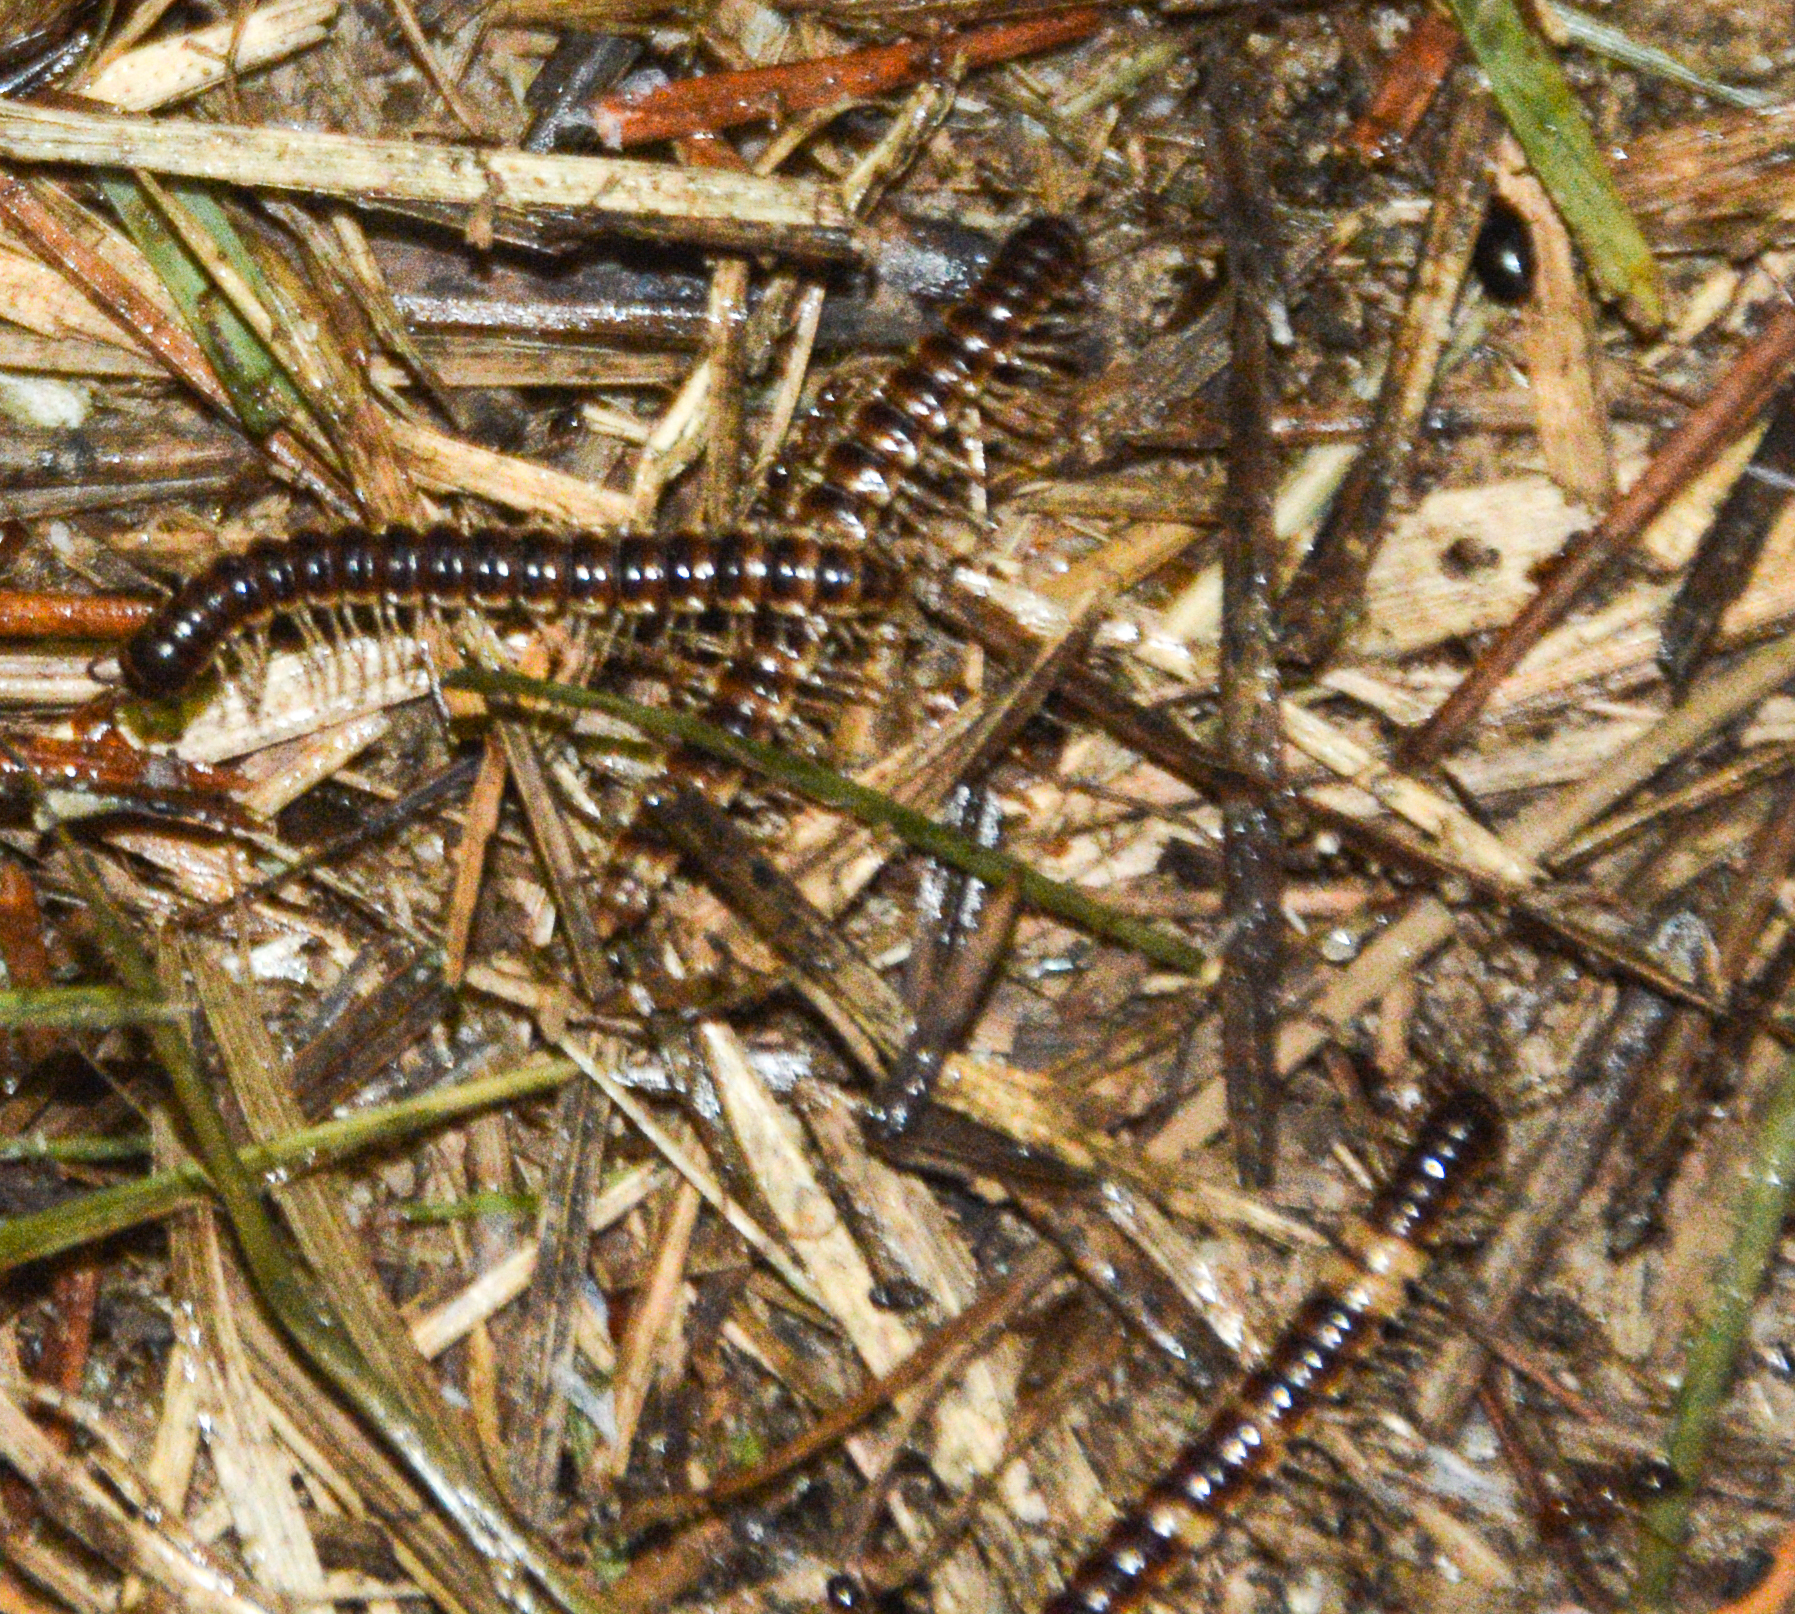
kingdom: Animalia
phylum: Arthropoda
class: Diplopoda
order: Polydesmida
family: Paradoxosomatidae
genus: Oxidus
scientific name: Oxidus gracilis
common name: Greenhouse millipede
